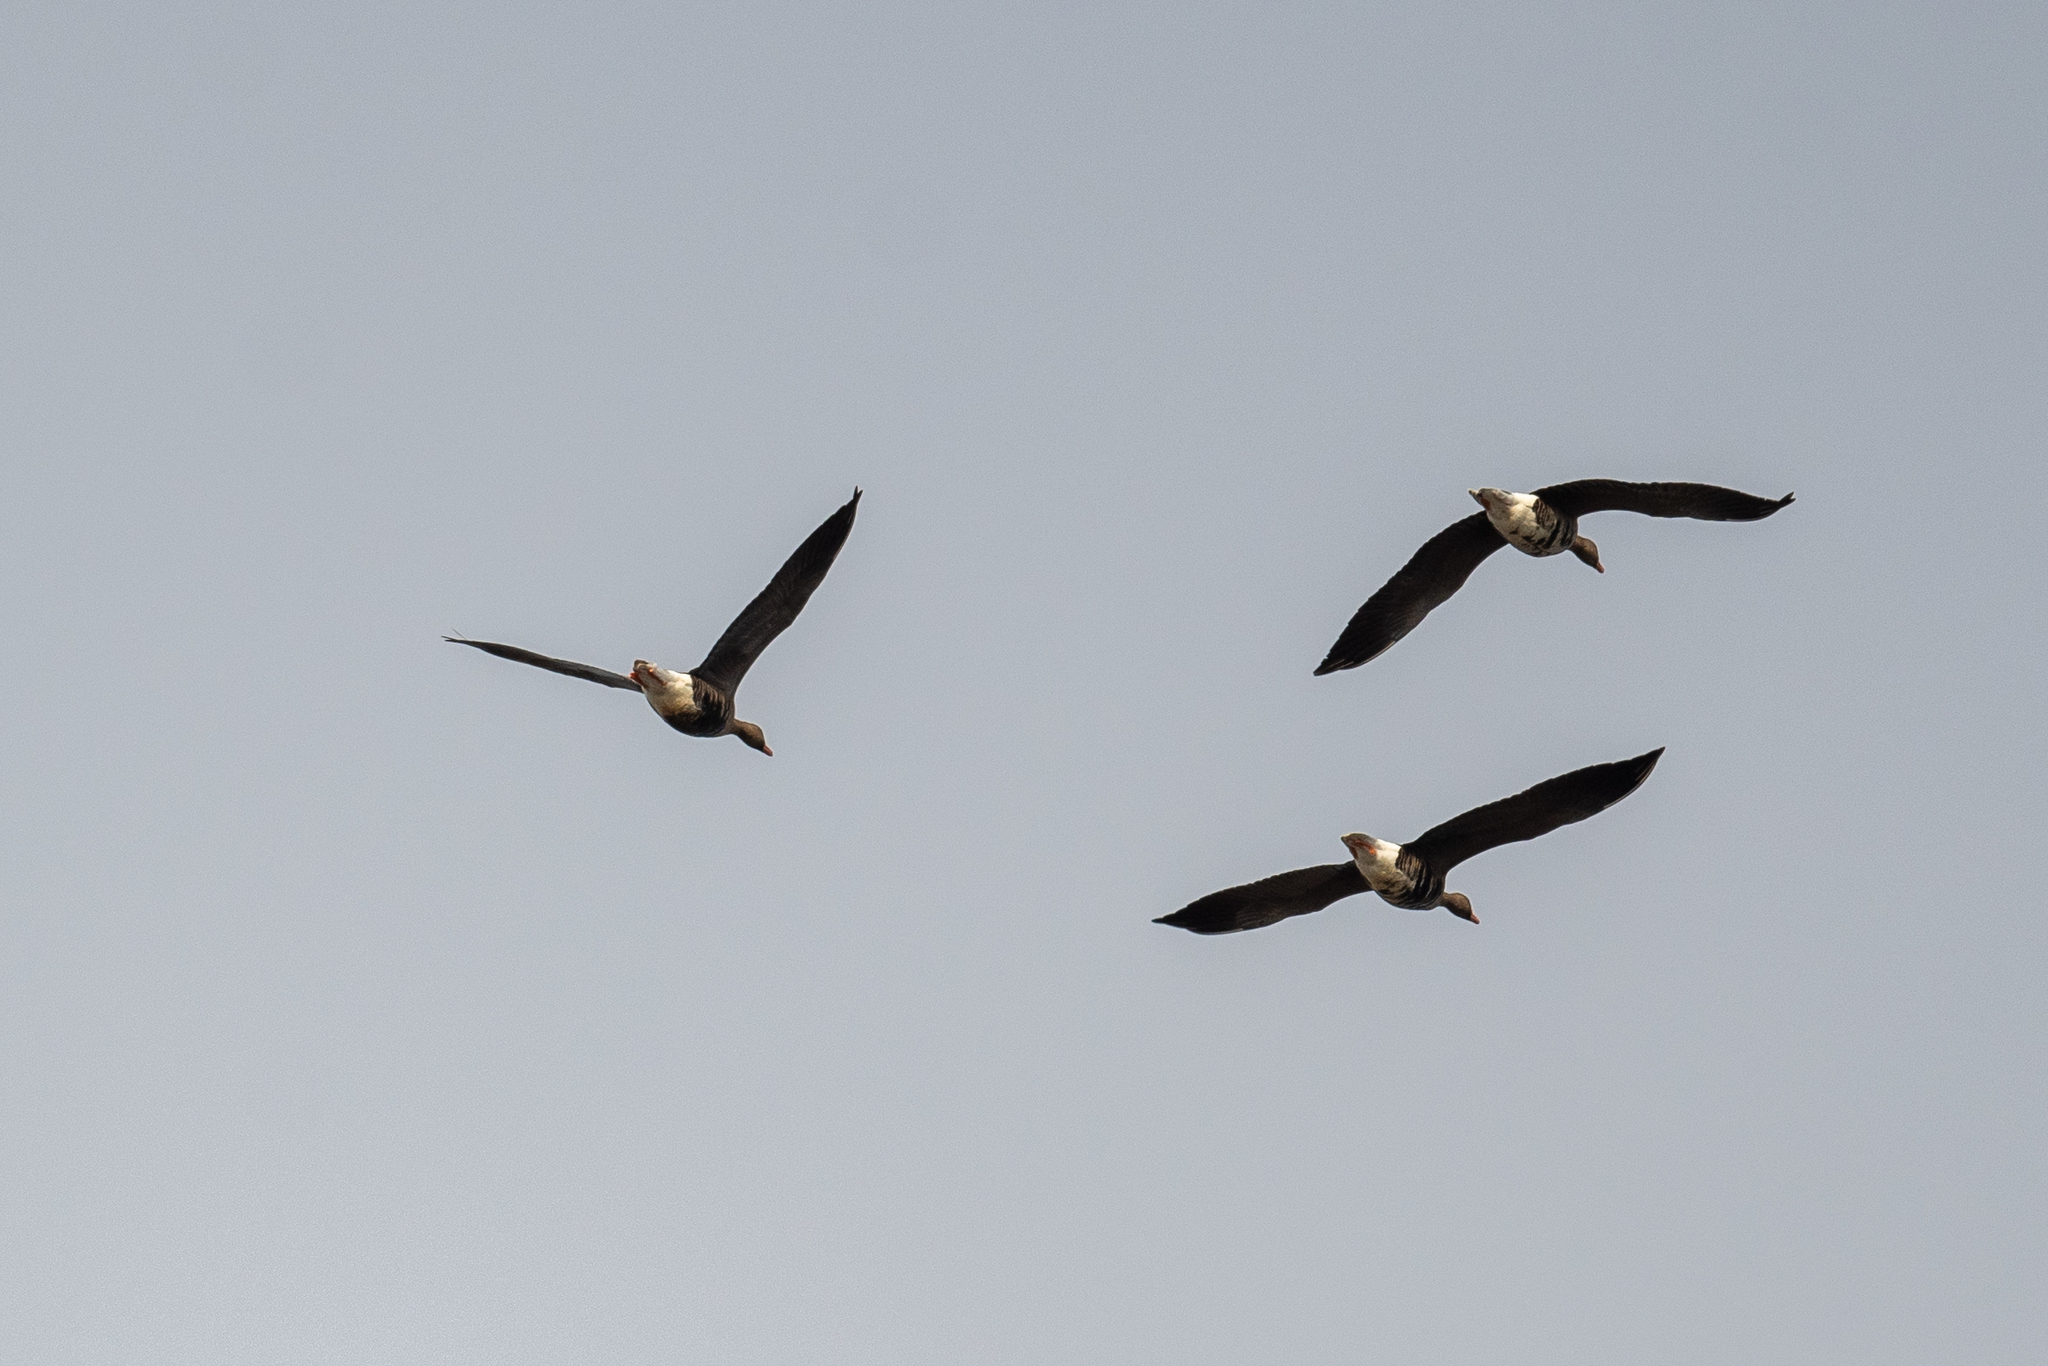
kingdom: Animalia
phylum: Chordata
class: Aves
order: Anseriformes
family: Anatidae
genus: Anser
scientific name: Anser albifrons
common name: Greater white-fronted goose
